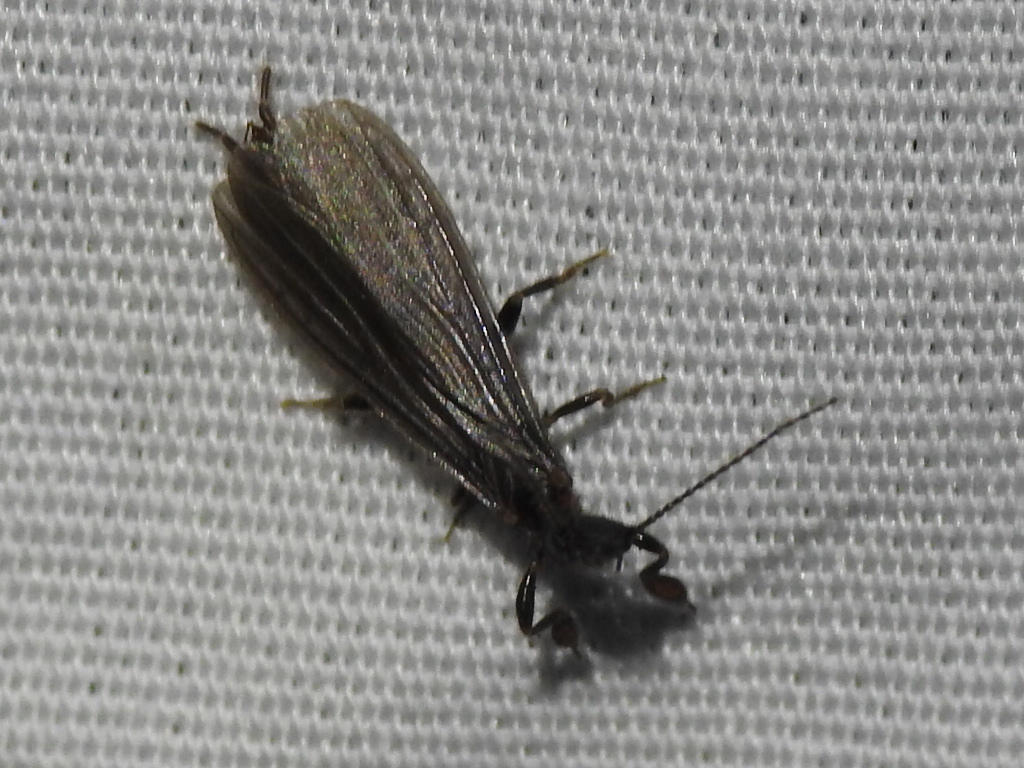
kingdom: Animalia
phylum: Arthropoda
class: Insecta
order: Embioptera
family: Oligotomidae
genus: Oligotoma
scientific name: Oligotoma nigra
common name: Black webspinner
